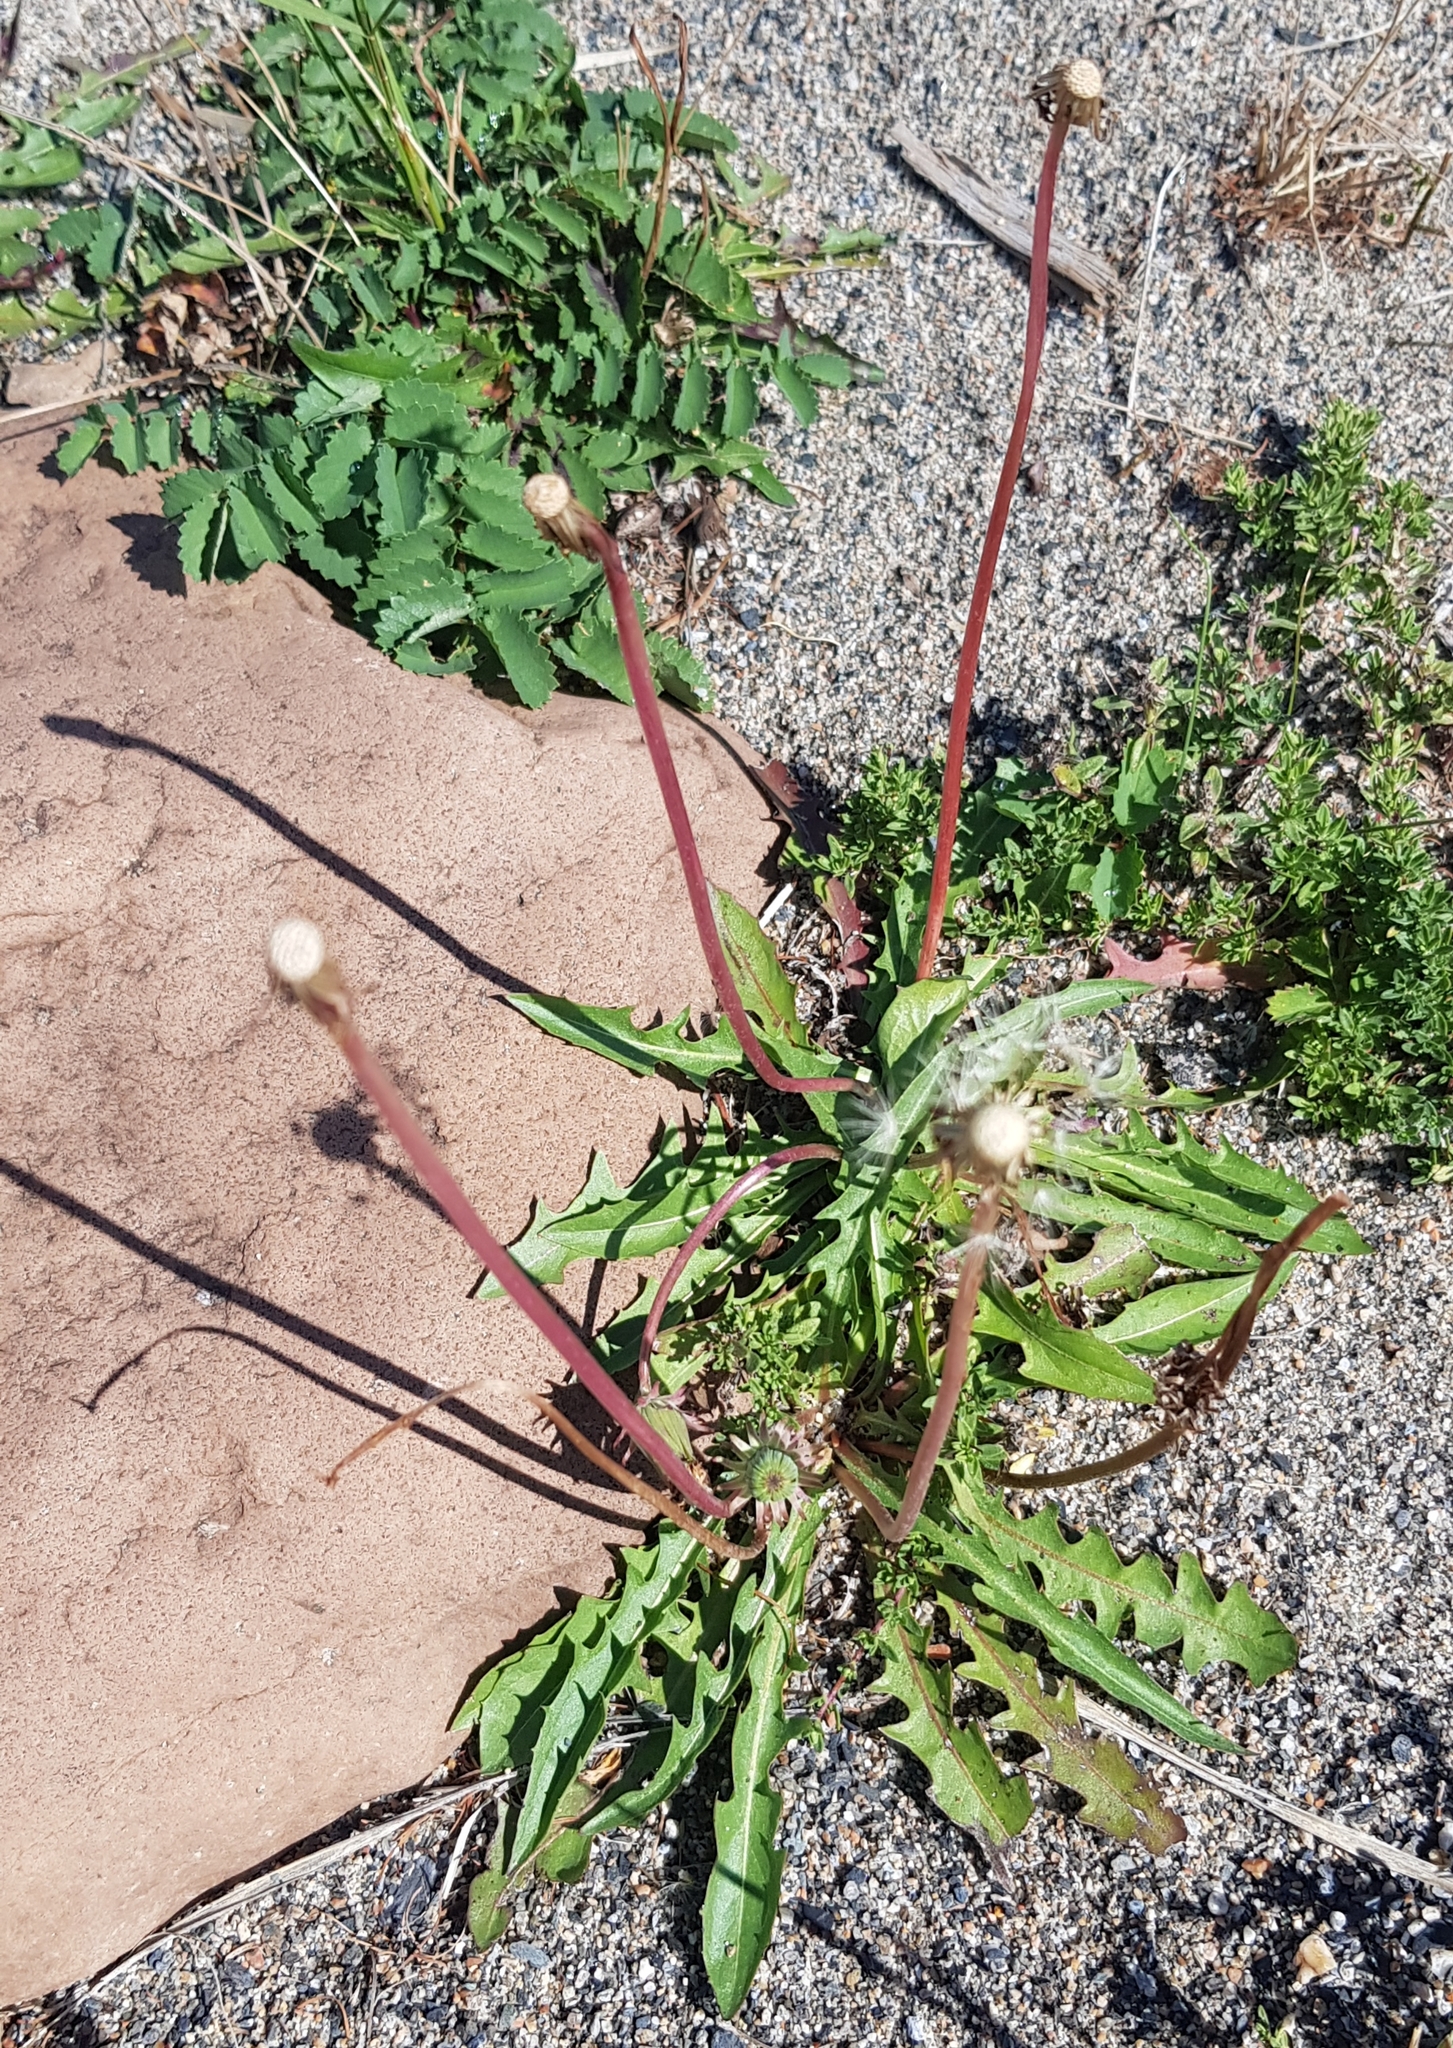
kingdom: Plantae
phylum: Tracheophyta
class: Magnoliopsida
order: Asterales
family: Asteraceae
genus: Taraxacum
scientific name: Taraxacum ceratophorum
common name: Horn-bearing dandelion
